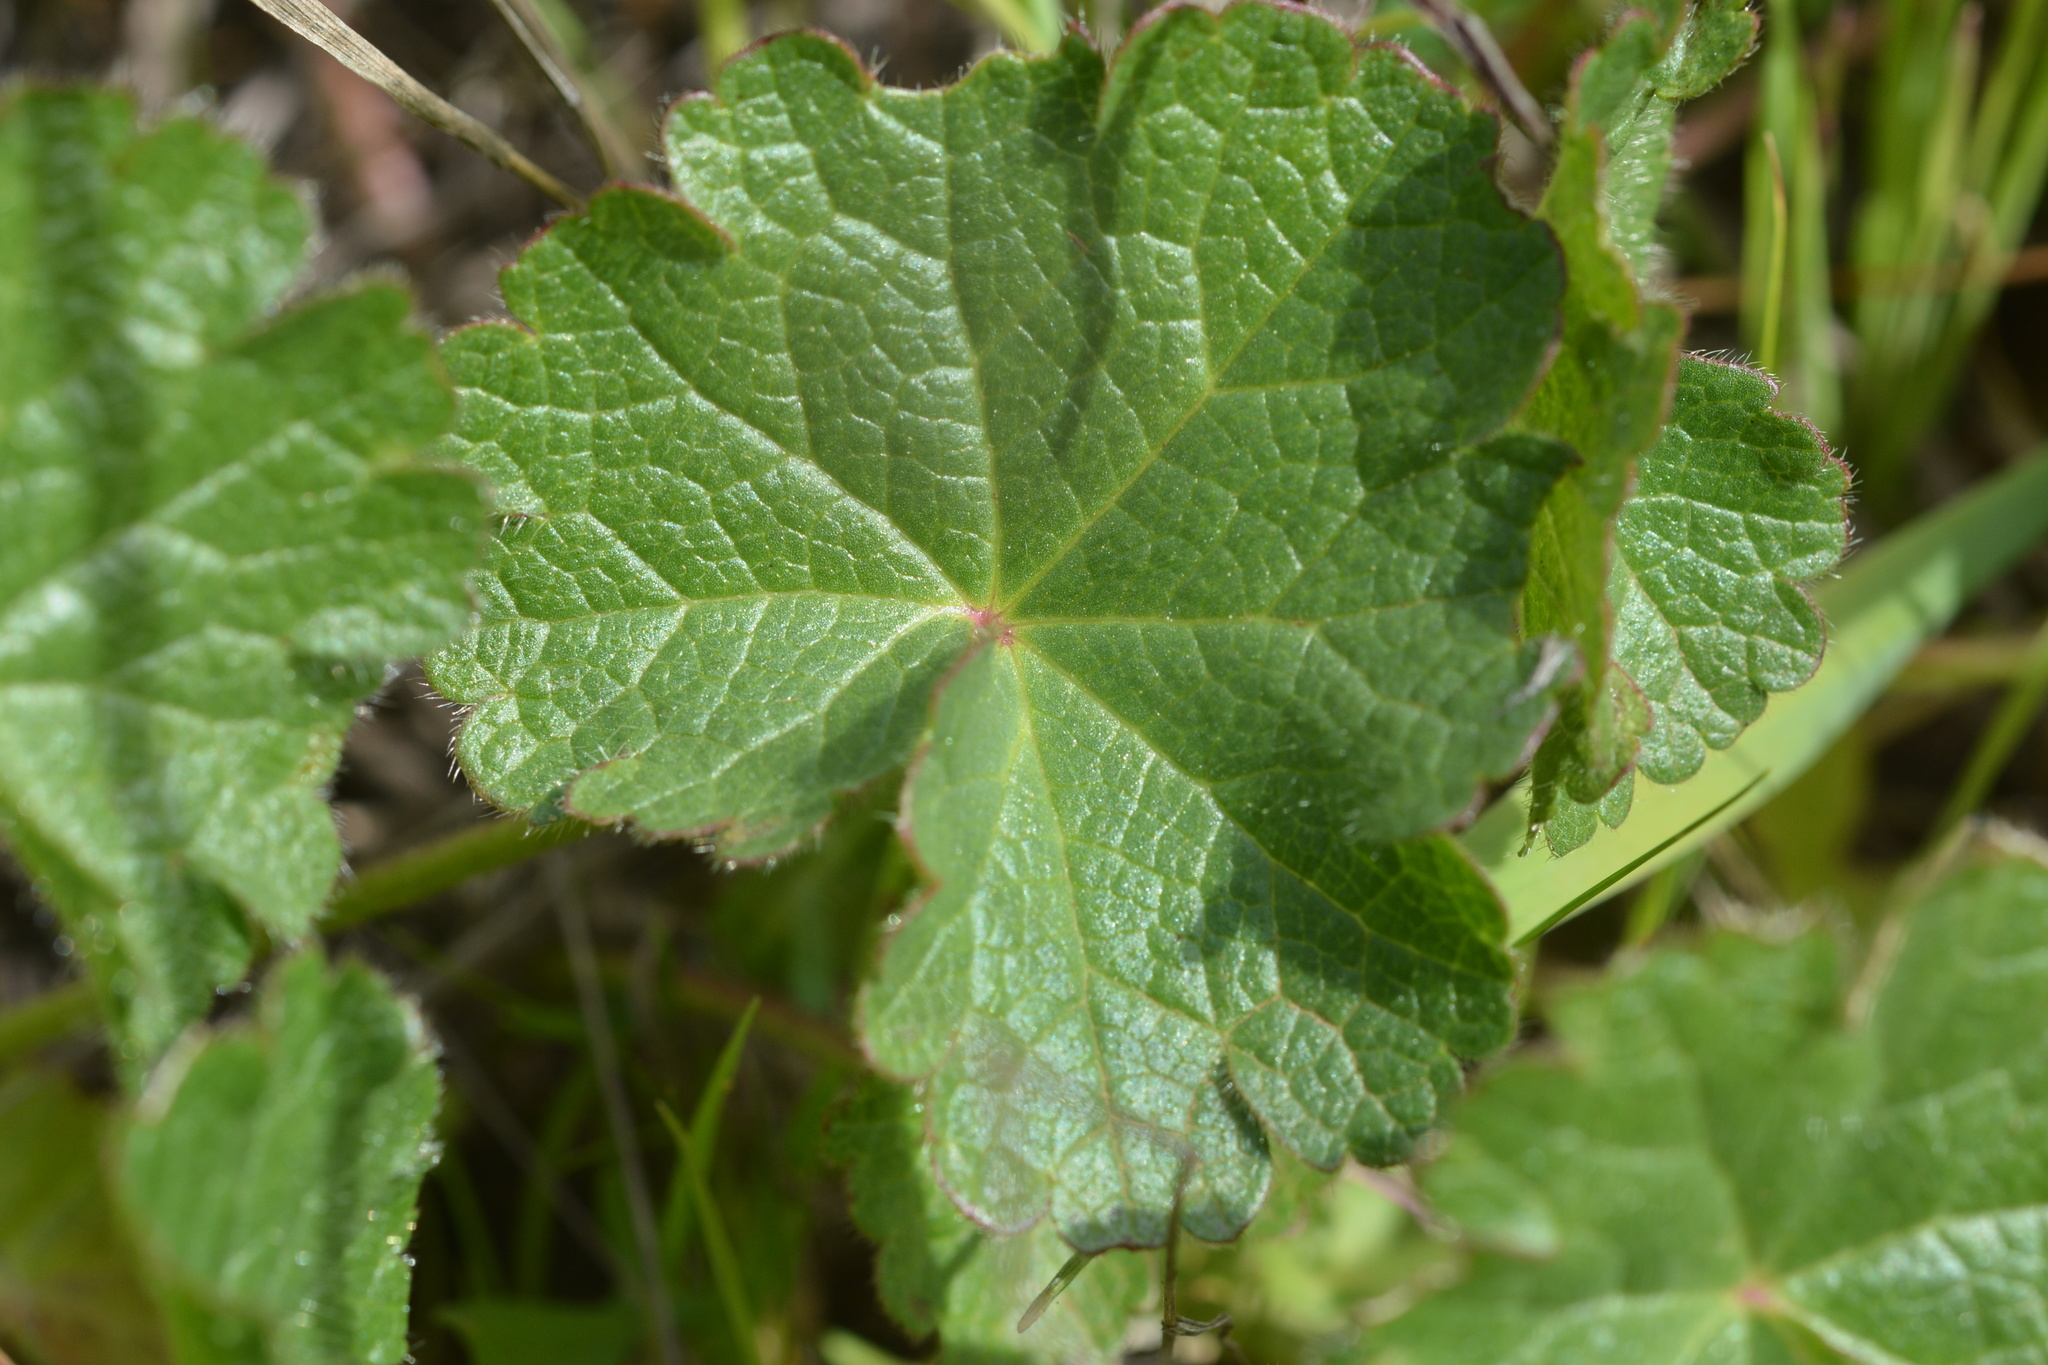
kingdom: Plantae
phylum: Tracheophyta
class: Magnoliopsida
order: Malvales
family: Malvaceae
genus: Sidalcea
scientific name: Sidalcea malviflora
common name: Greek mallow
